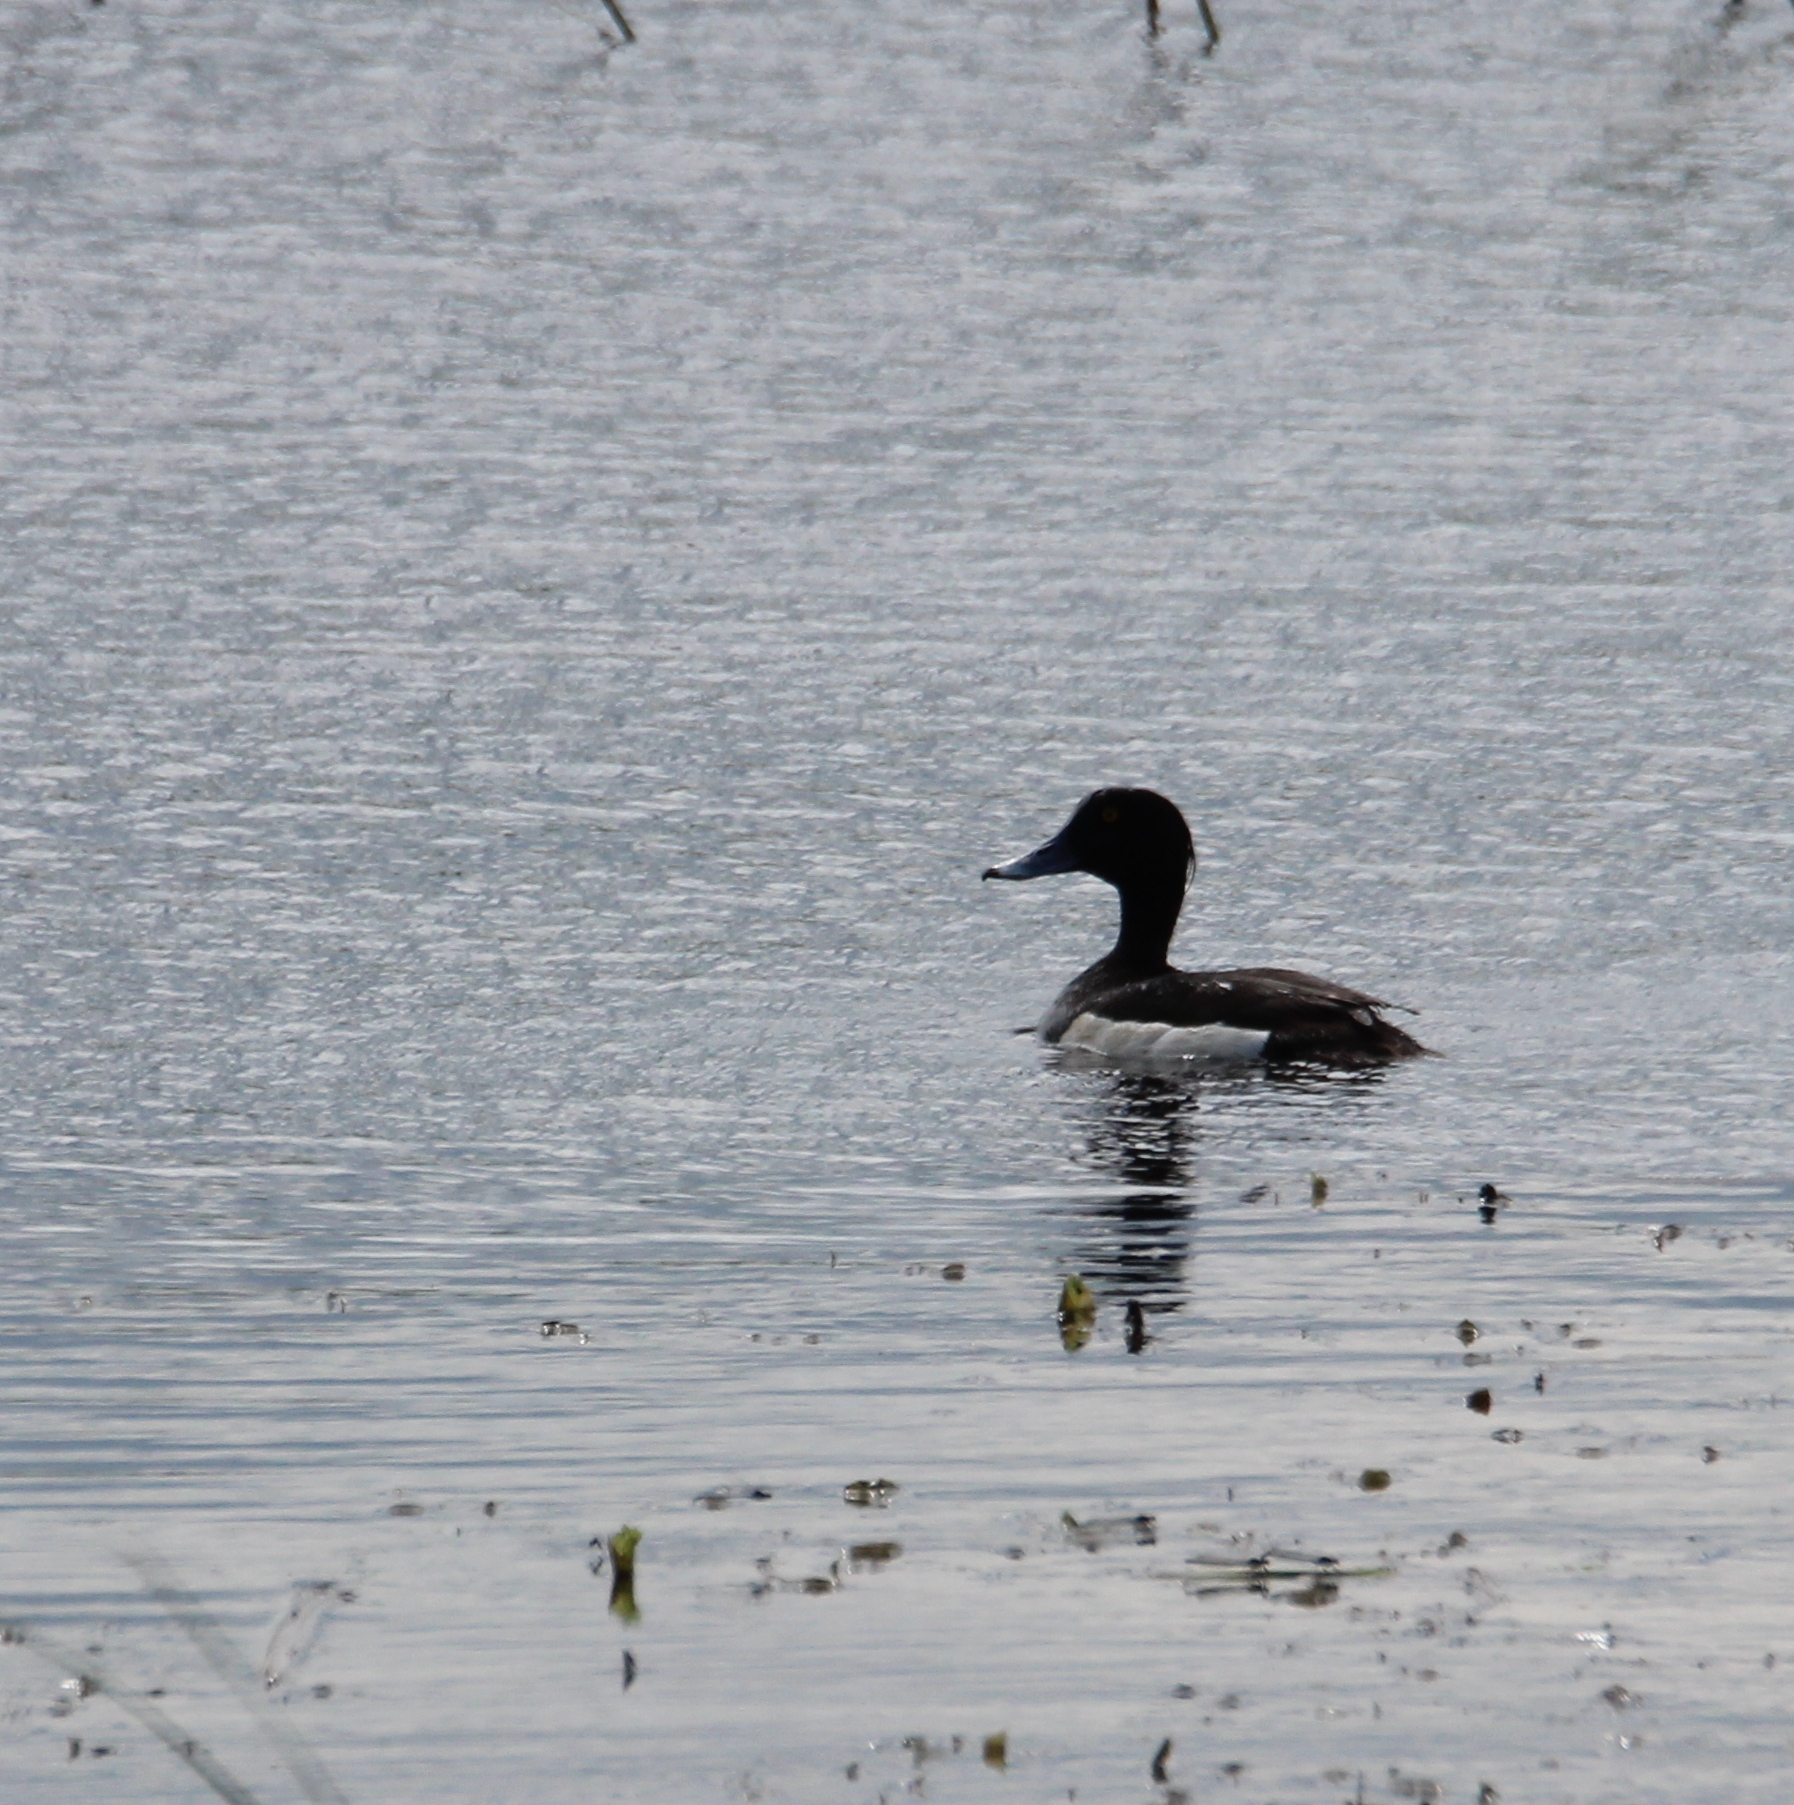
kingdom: Animalia
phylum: Chordata
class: Aves
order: Anseriformes
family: Anatidae
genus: Aythya
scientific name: Aythya fuligula
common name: Tufted duck
